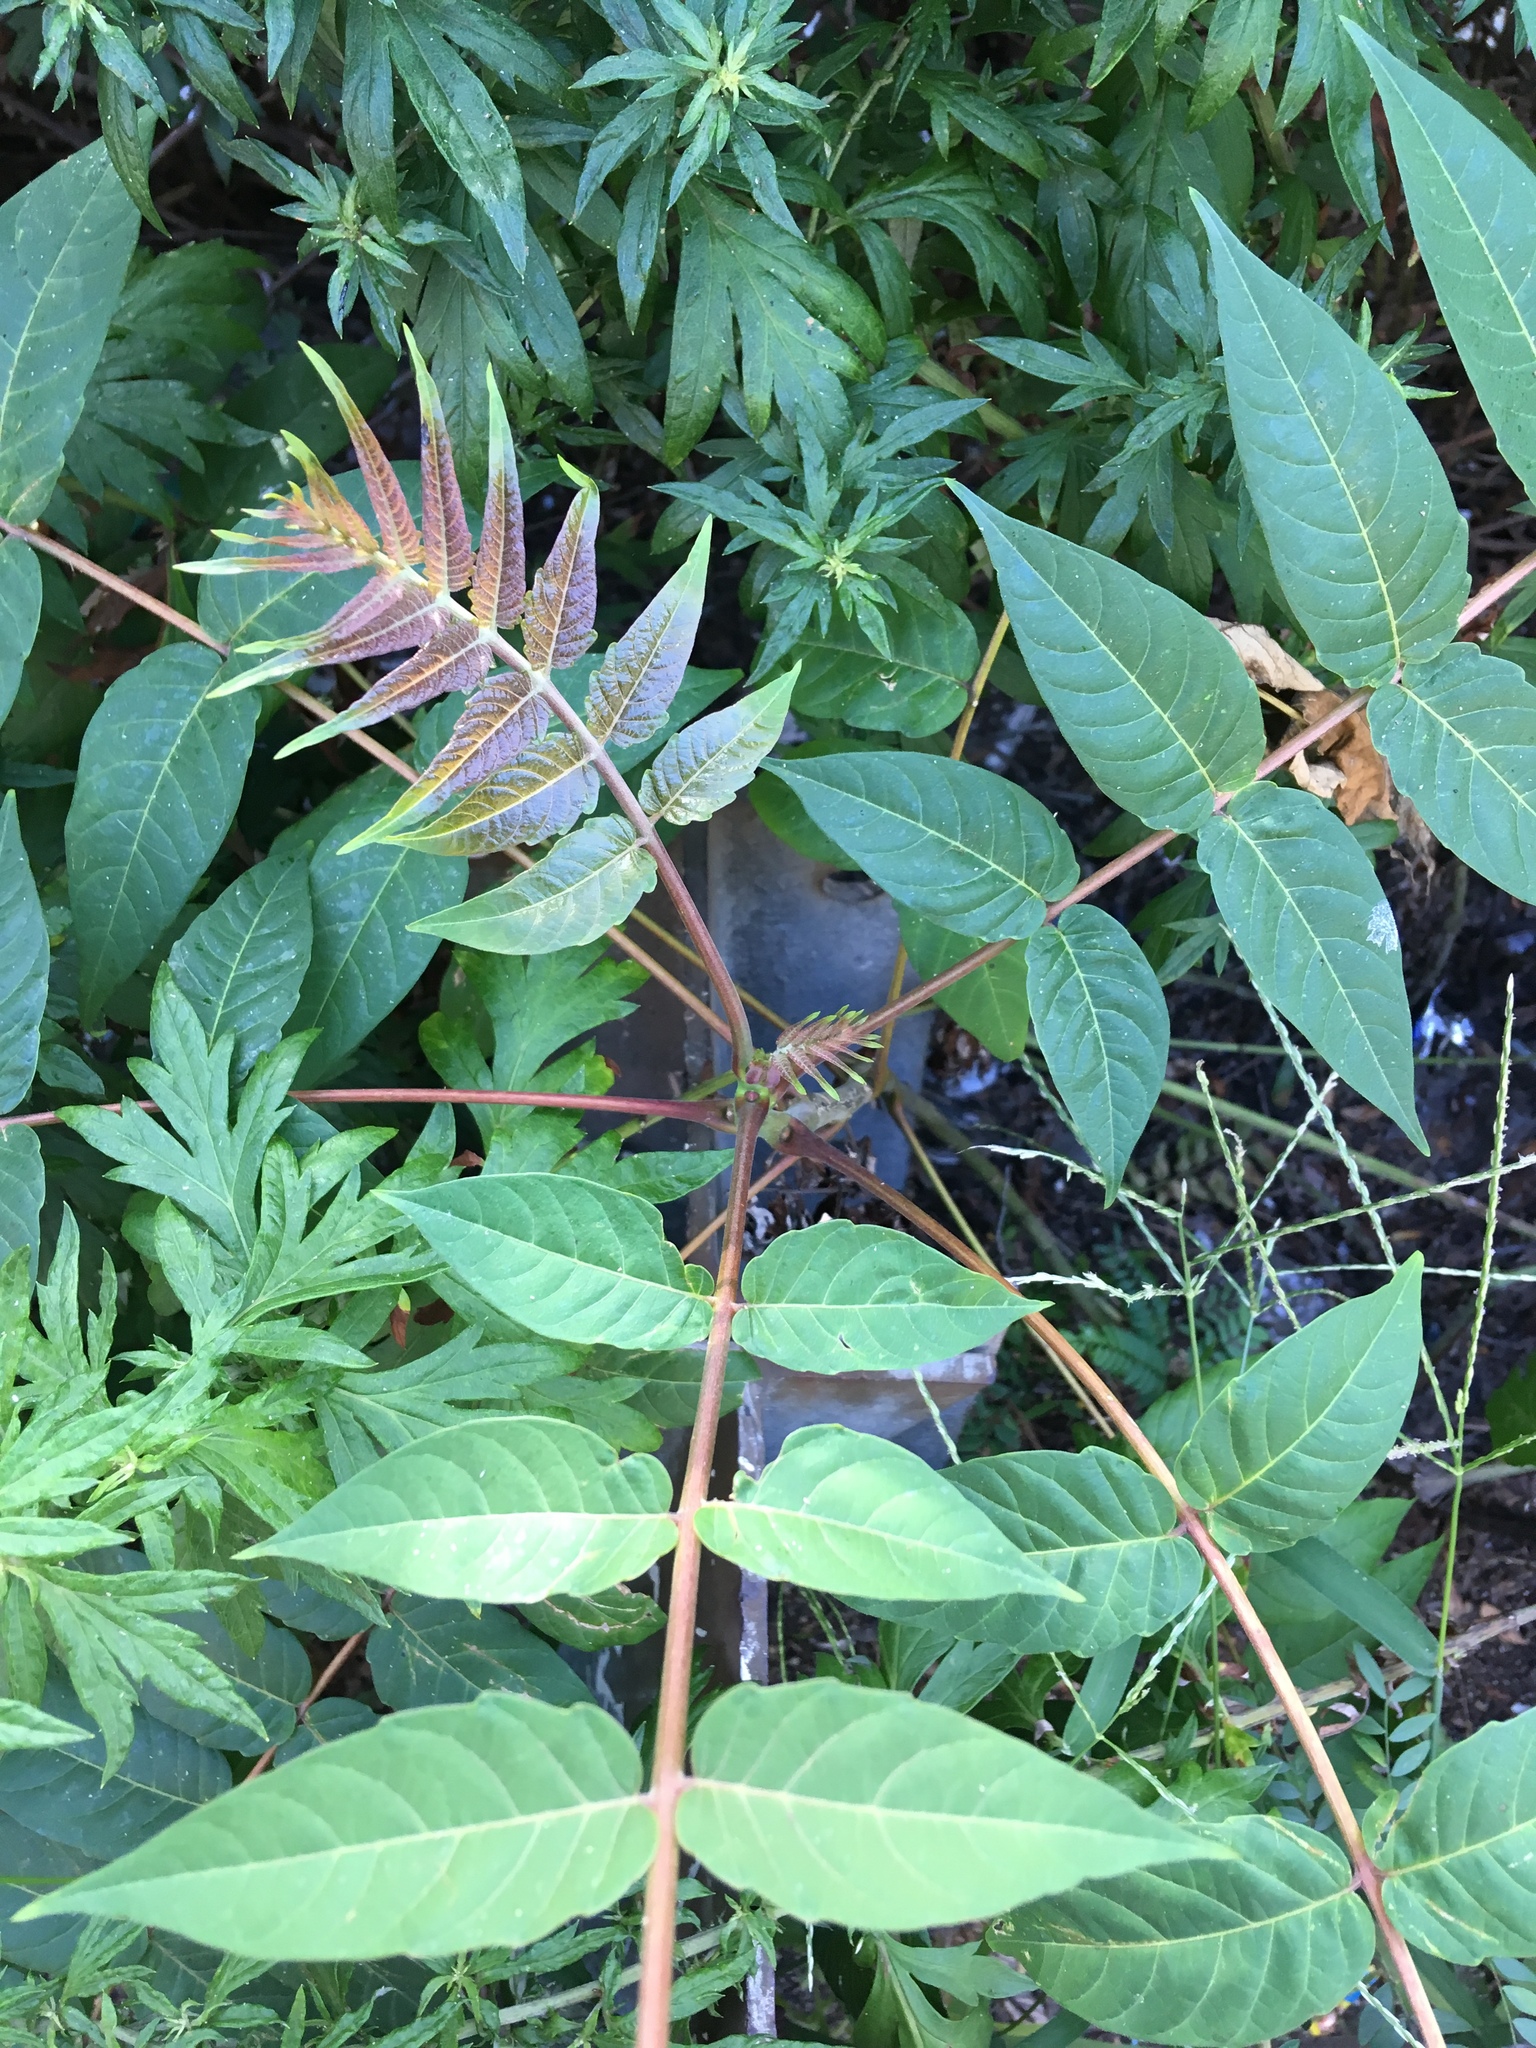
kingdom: Plantae
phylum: Tracheophyta
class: Magnoliopsida
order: Sapindales
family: Simaroubaceae
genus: Ailanthus
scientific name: Ailanthus altissima
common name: Tree-of-heaven
